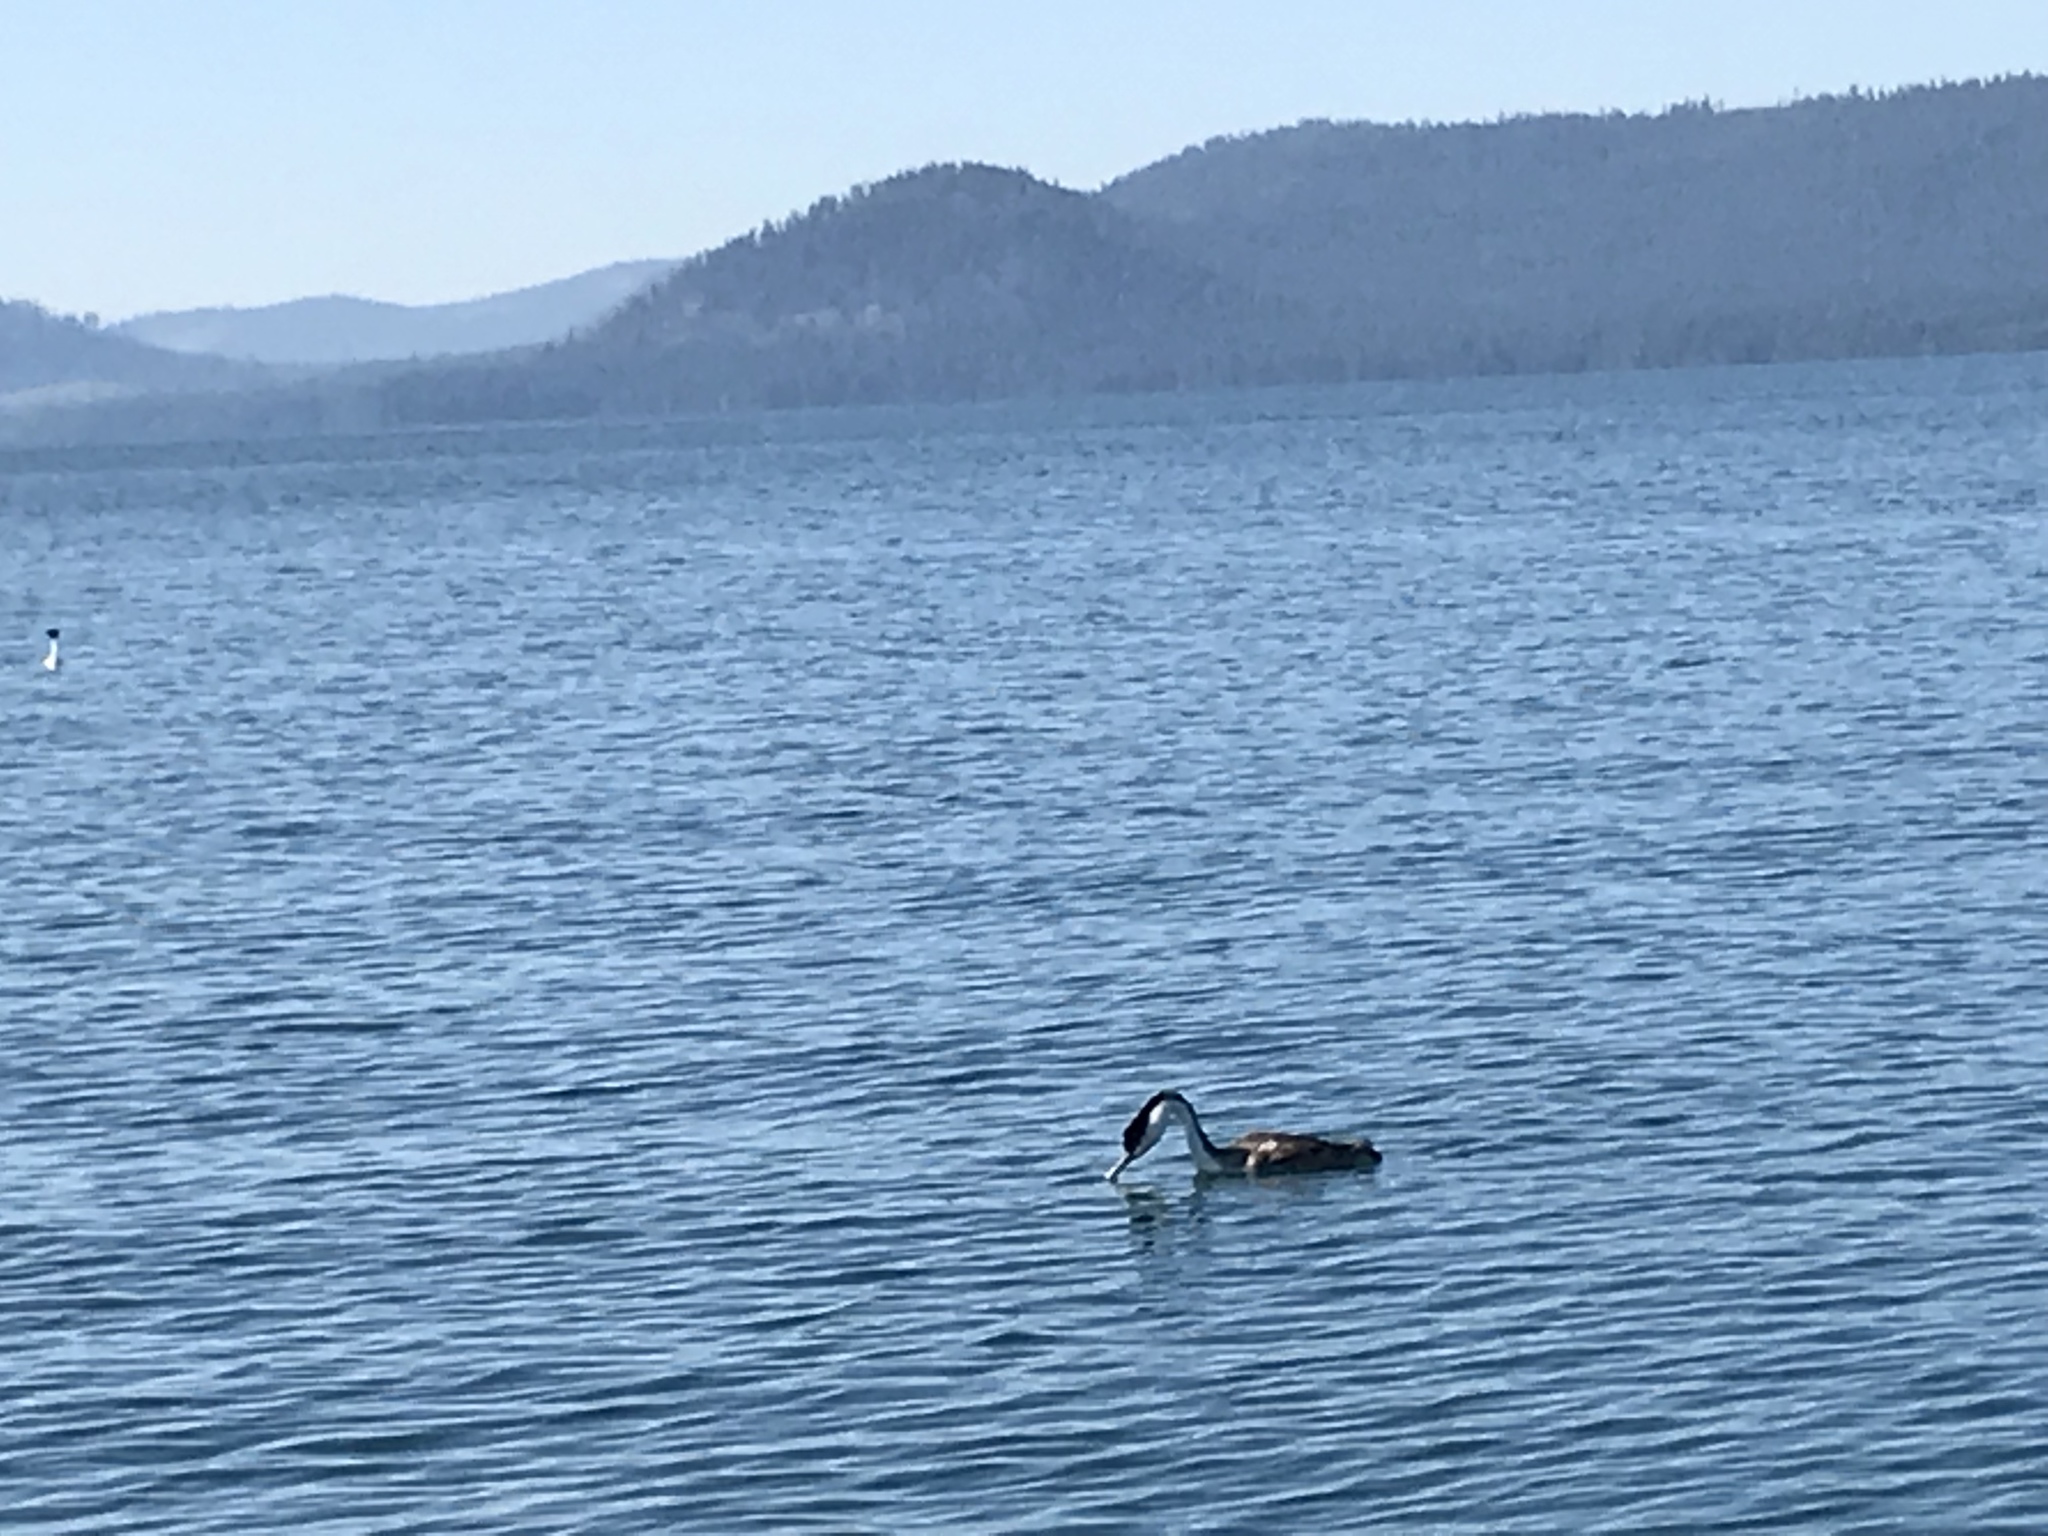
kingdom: Animalia
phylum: Chordata
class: Aves
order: Podicipediformes
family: Podicipedidae
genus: Aechmophorus
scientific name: Aechmophorus occidentalis
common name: Western grebe
